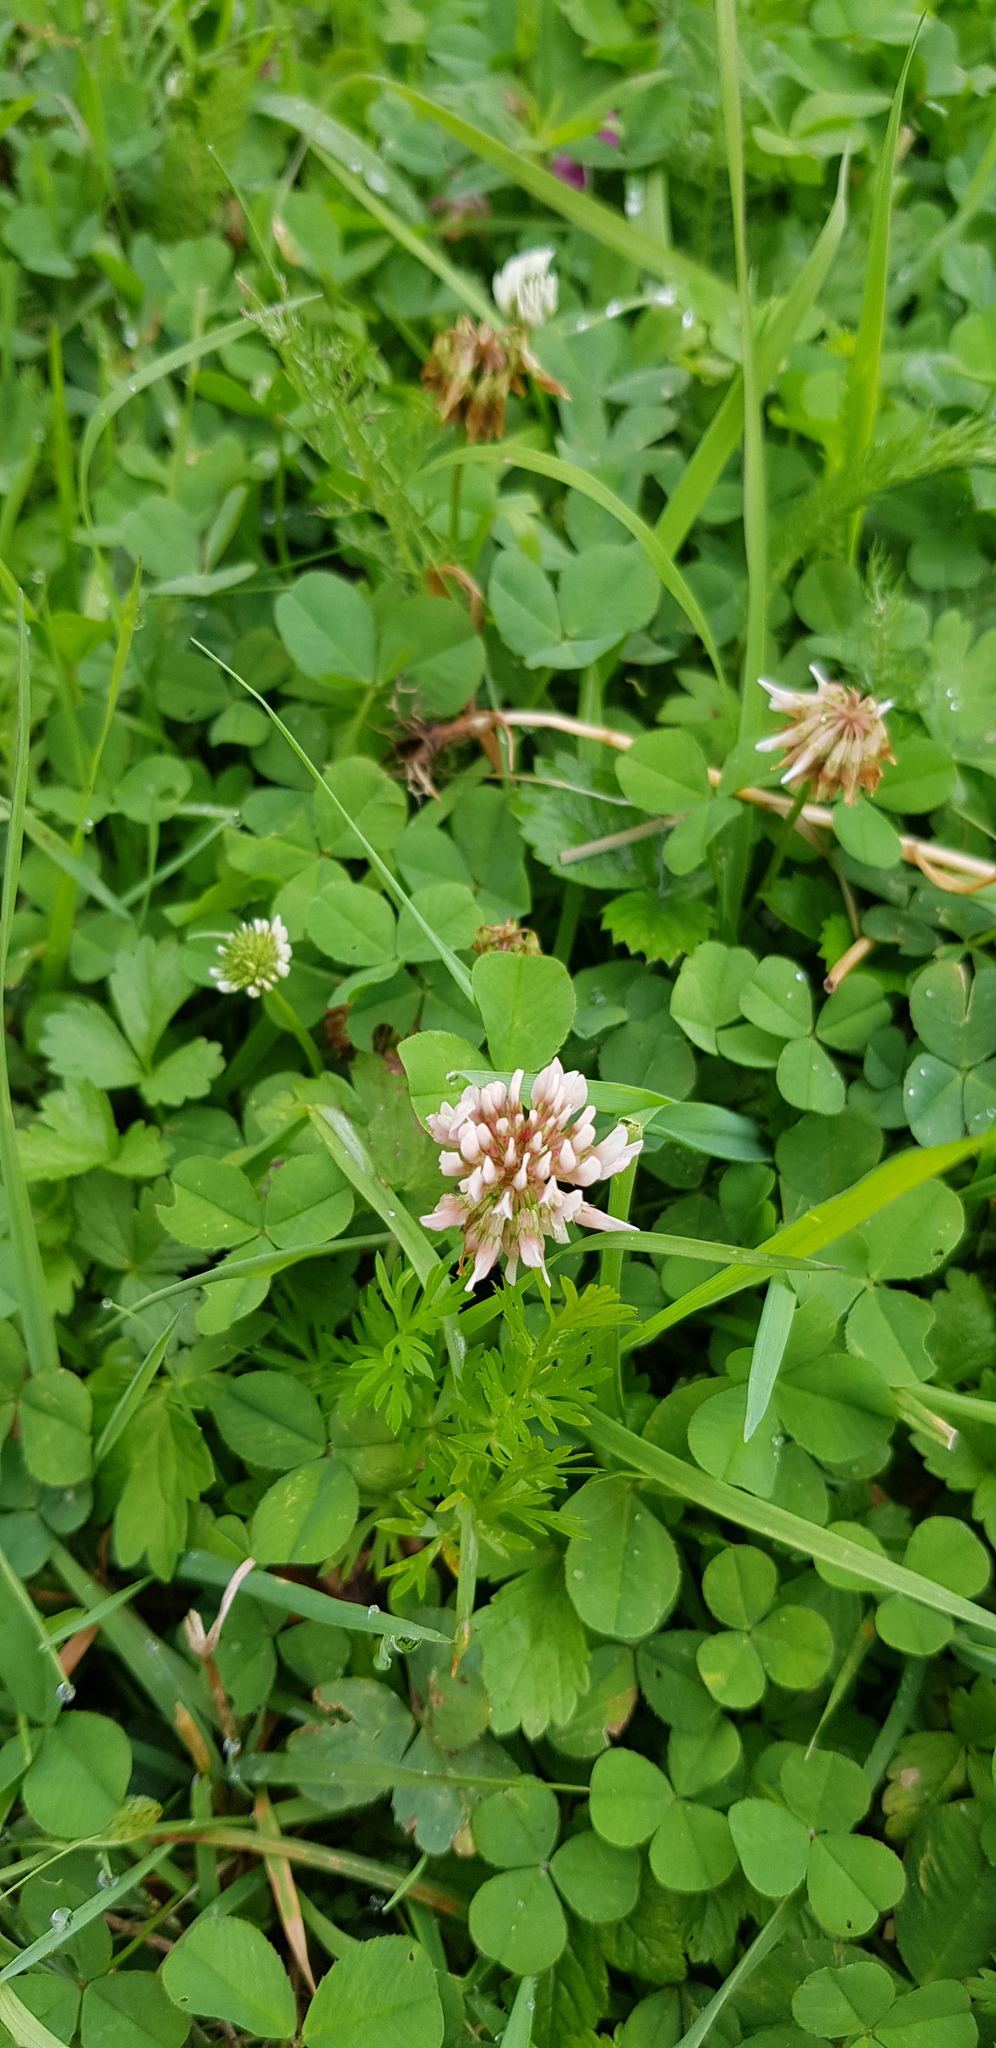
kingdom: Plantae
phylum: Tracheophyta
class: Magnoliopsida
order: Fabales
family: Fabaceae
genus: Trifolium
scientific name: Trifolium repens
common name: White clover
